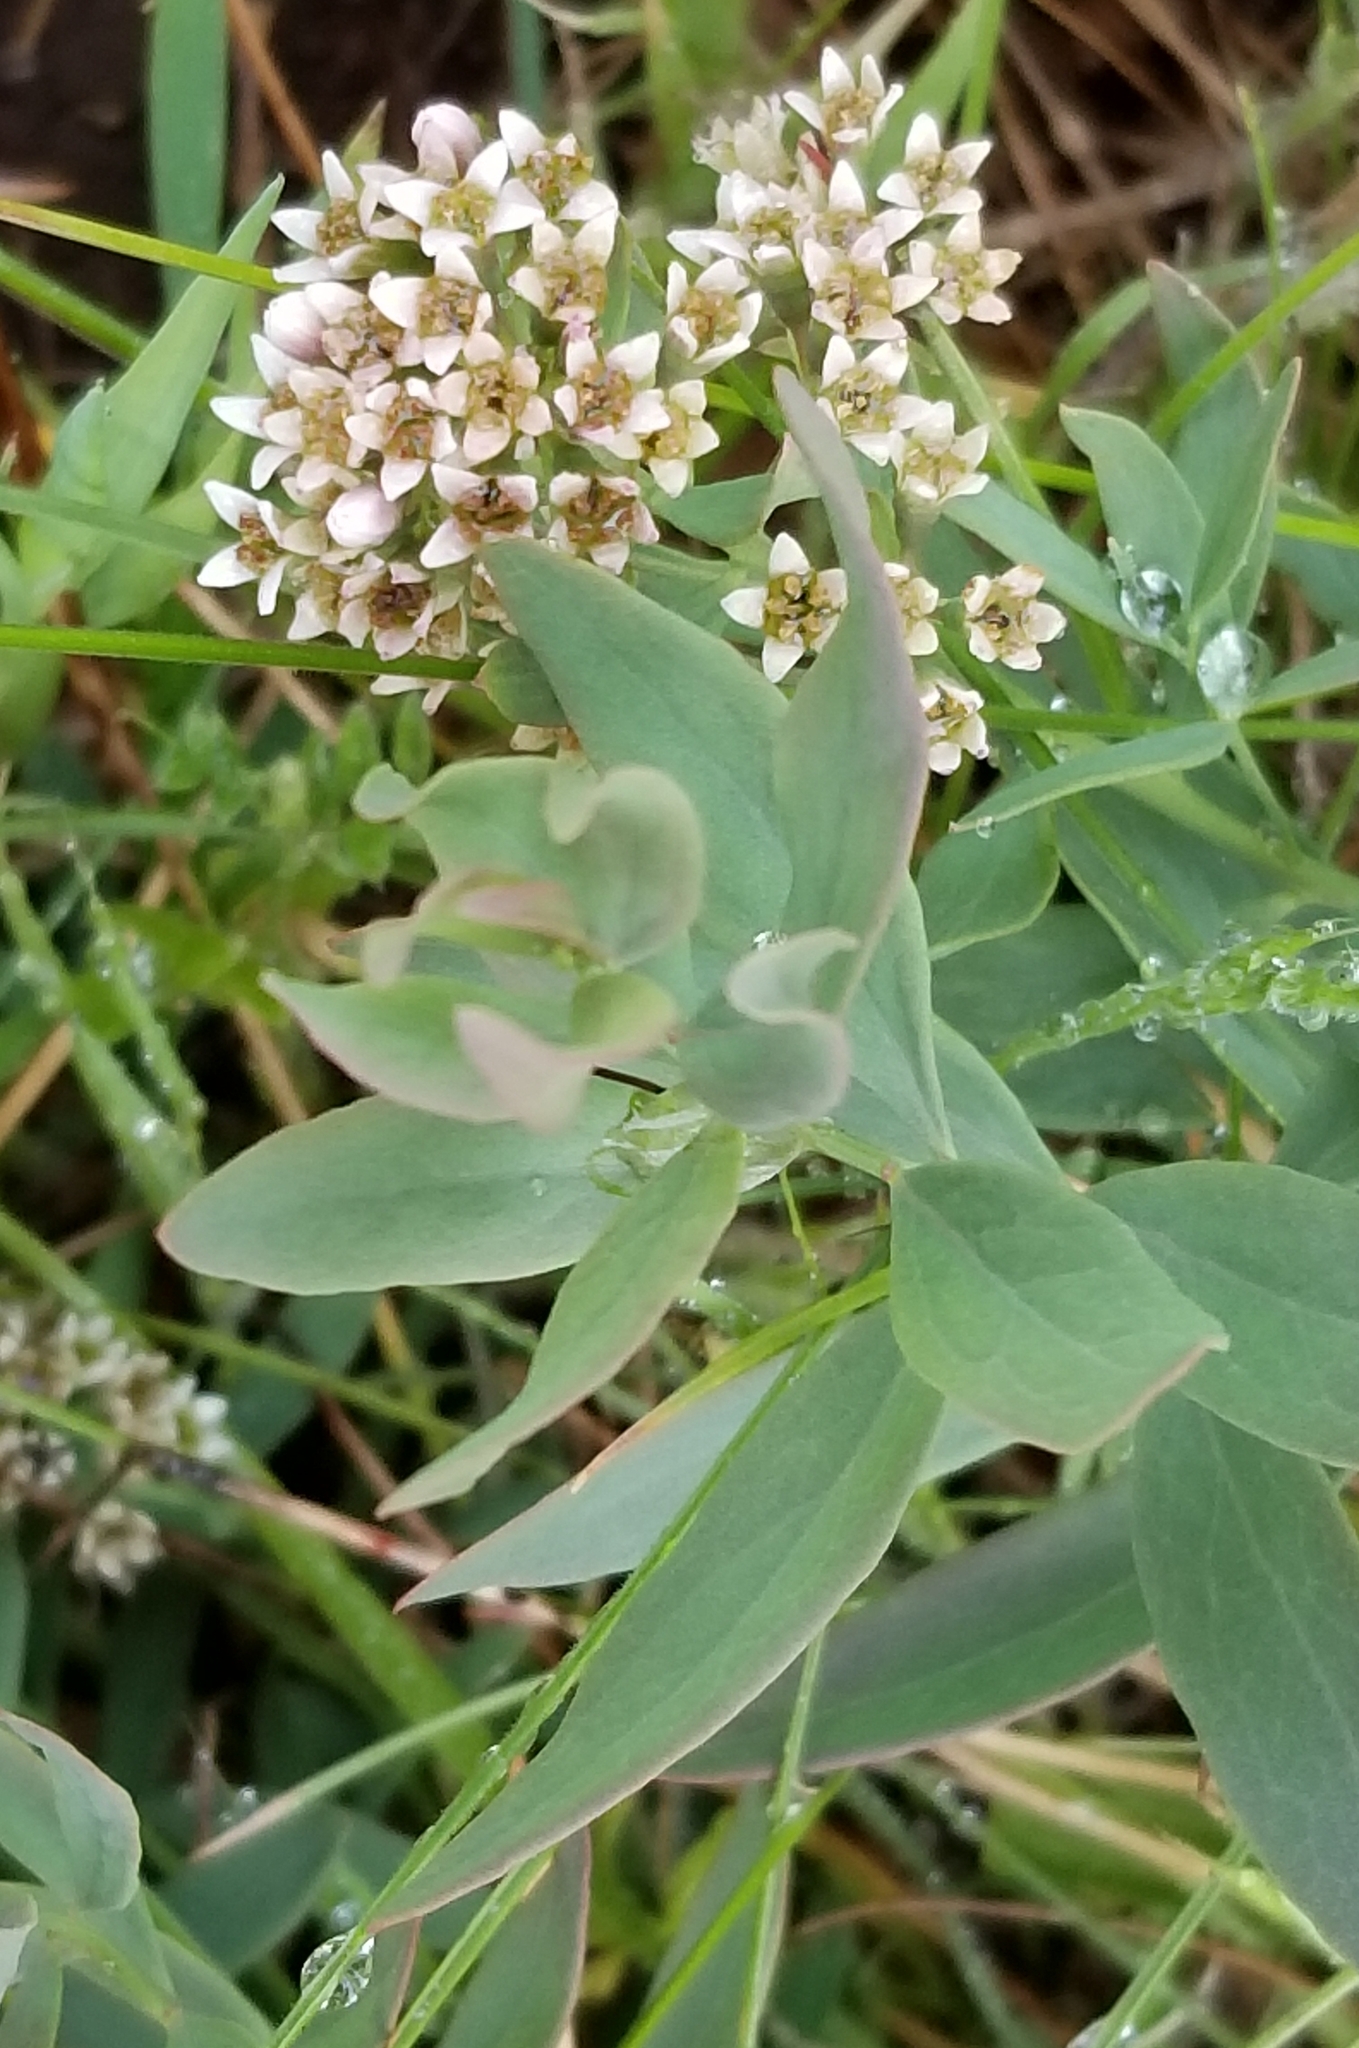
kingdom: Plantae
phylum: Tracheophyta
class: Magnoliopsida
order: Santalales
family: Comandraceae
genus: Comandra
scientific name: Comandra umbellata
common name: Bastard toadflax
